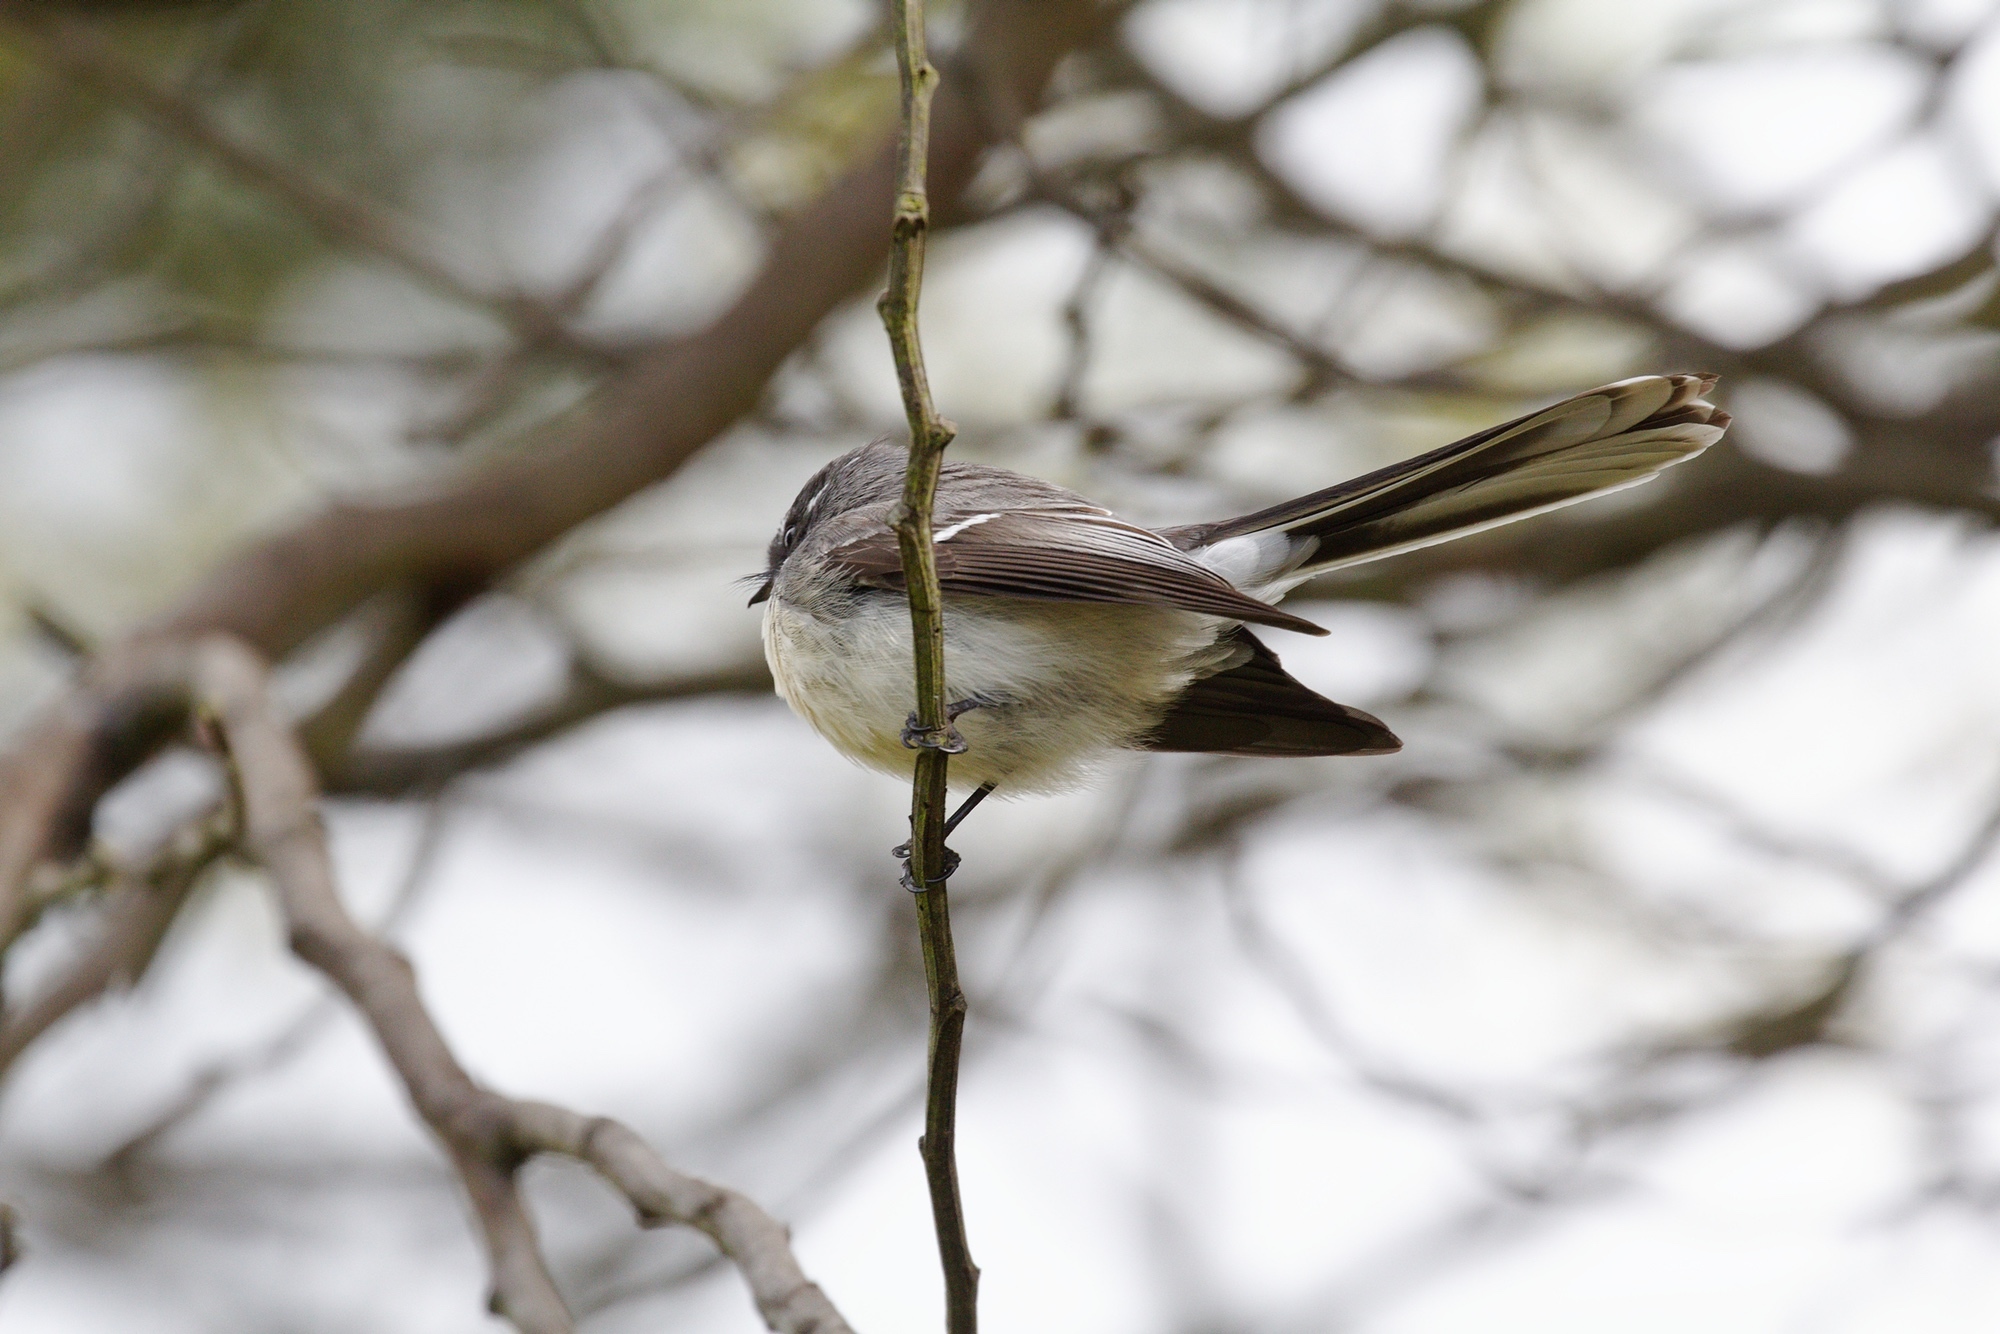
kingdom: Animalia
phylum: Chordata
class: Aves
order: Passeriformes
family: Rhipiduridae
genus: Rhipidura
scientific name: Rhipidura albiscapa
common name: Grey fantail
